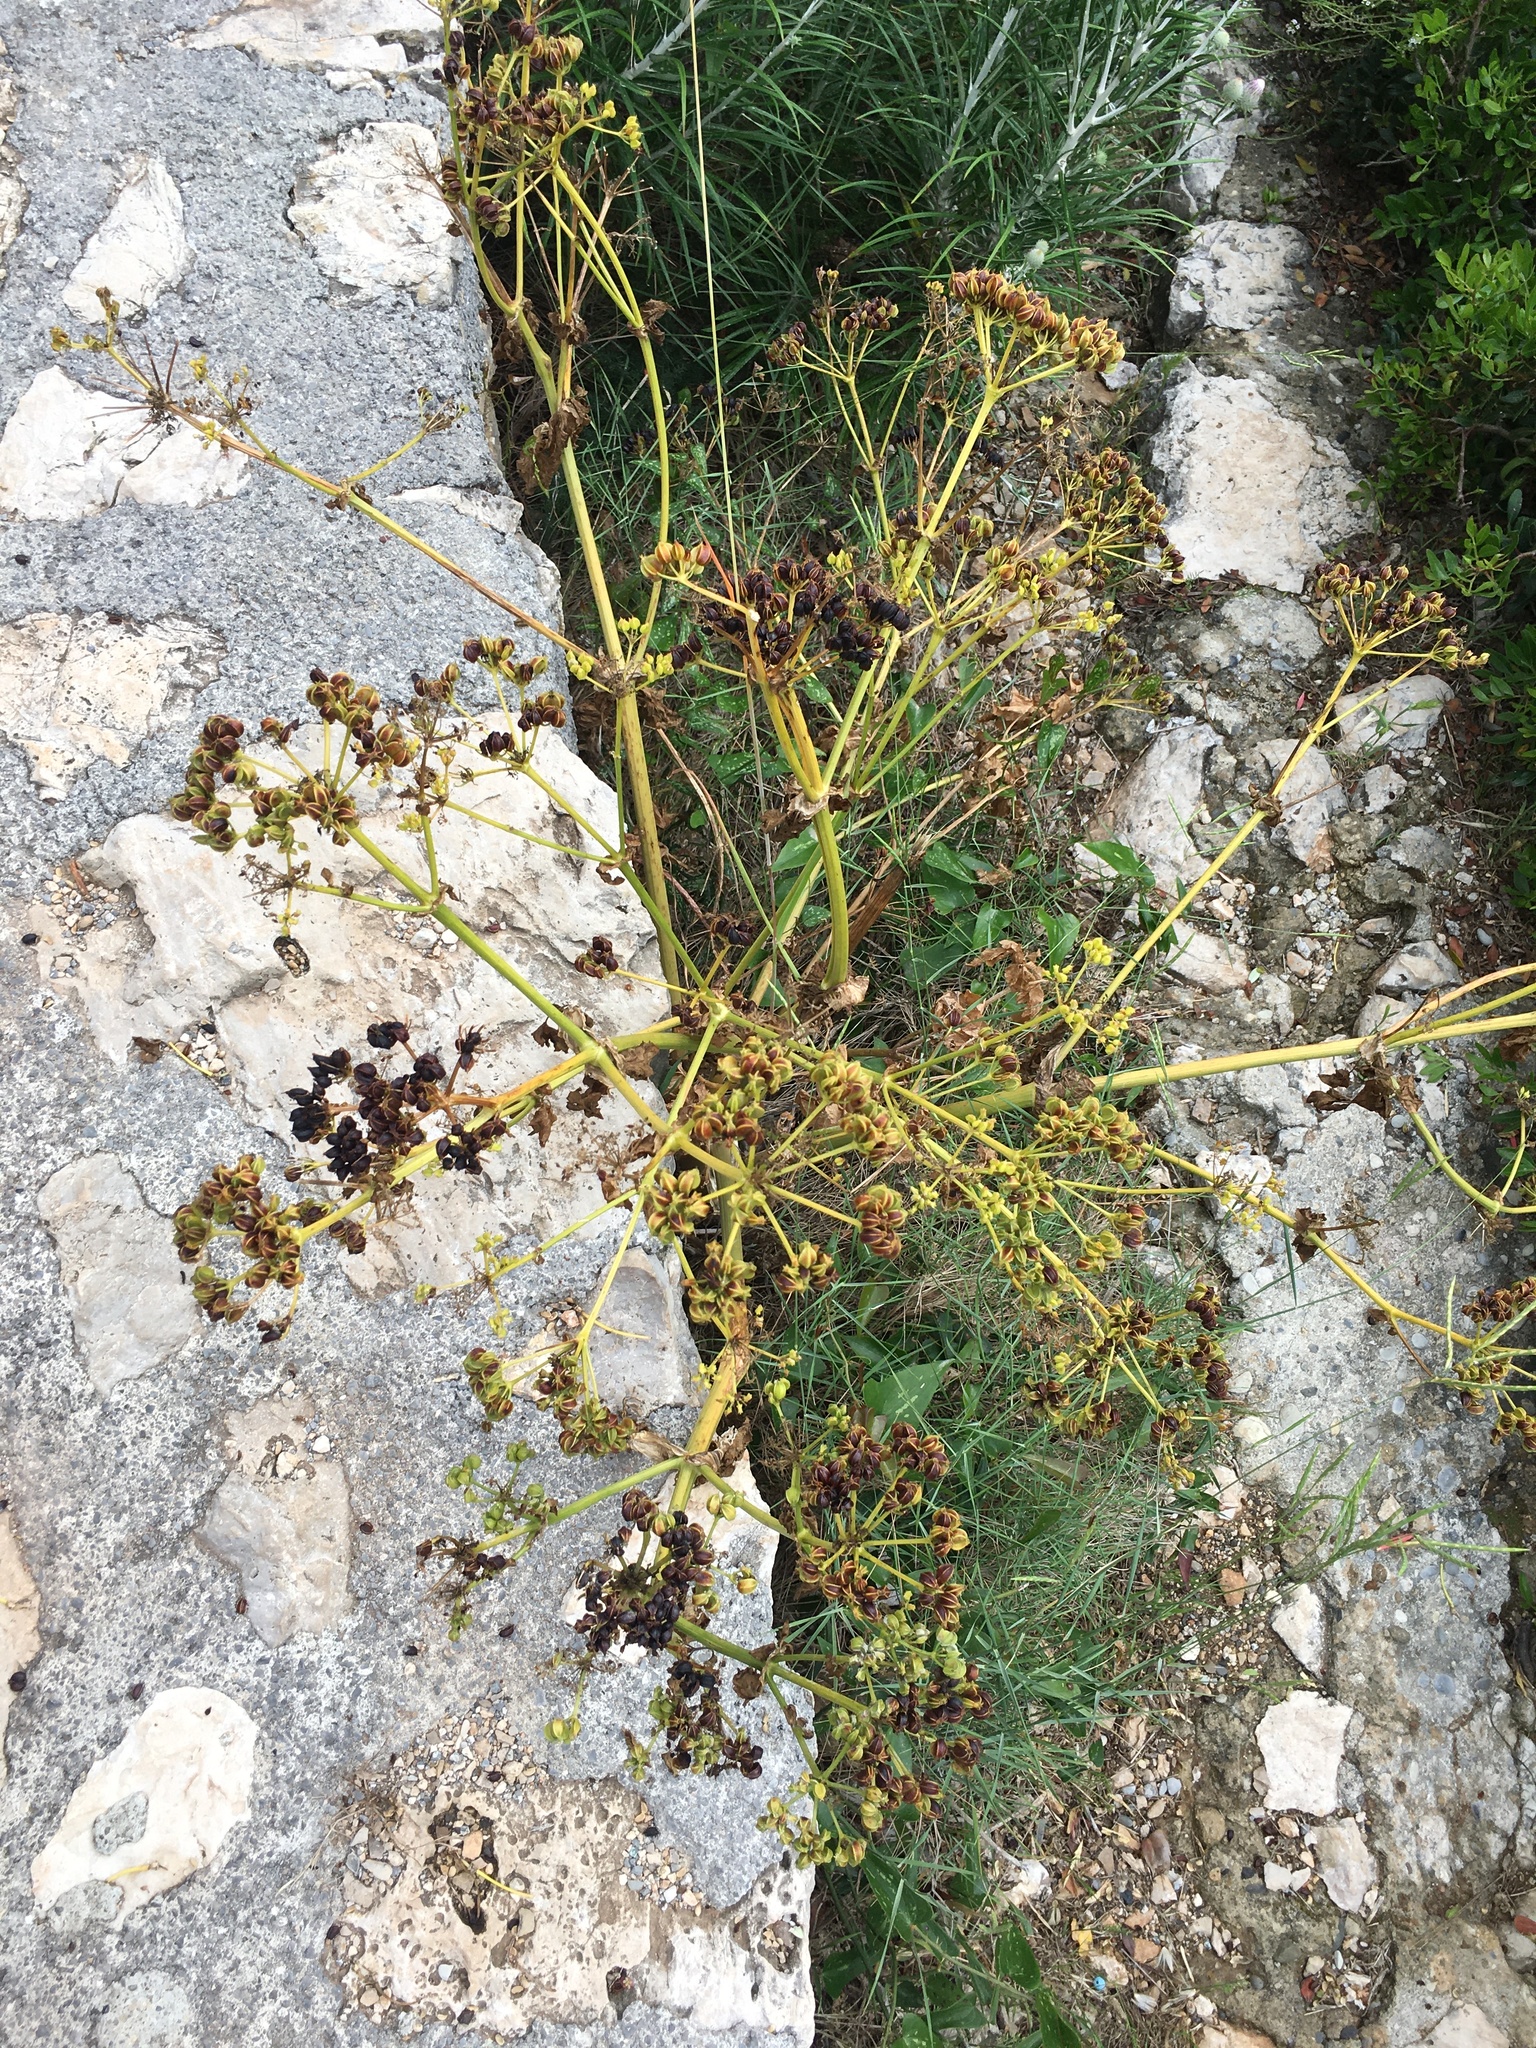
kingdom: Plantae
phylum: Tracheophyta
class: Magnoliopsida
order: Apiales
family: Apiaceae
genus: Smyrnium
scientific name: Smyrnium olusatrum
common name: Alexanders
